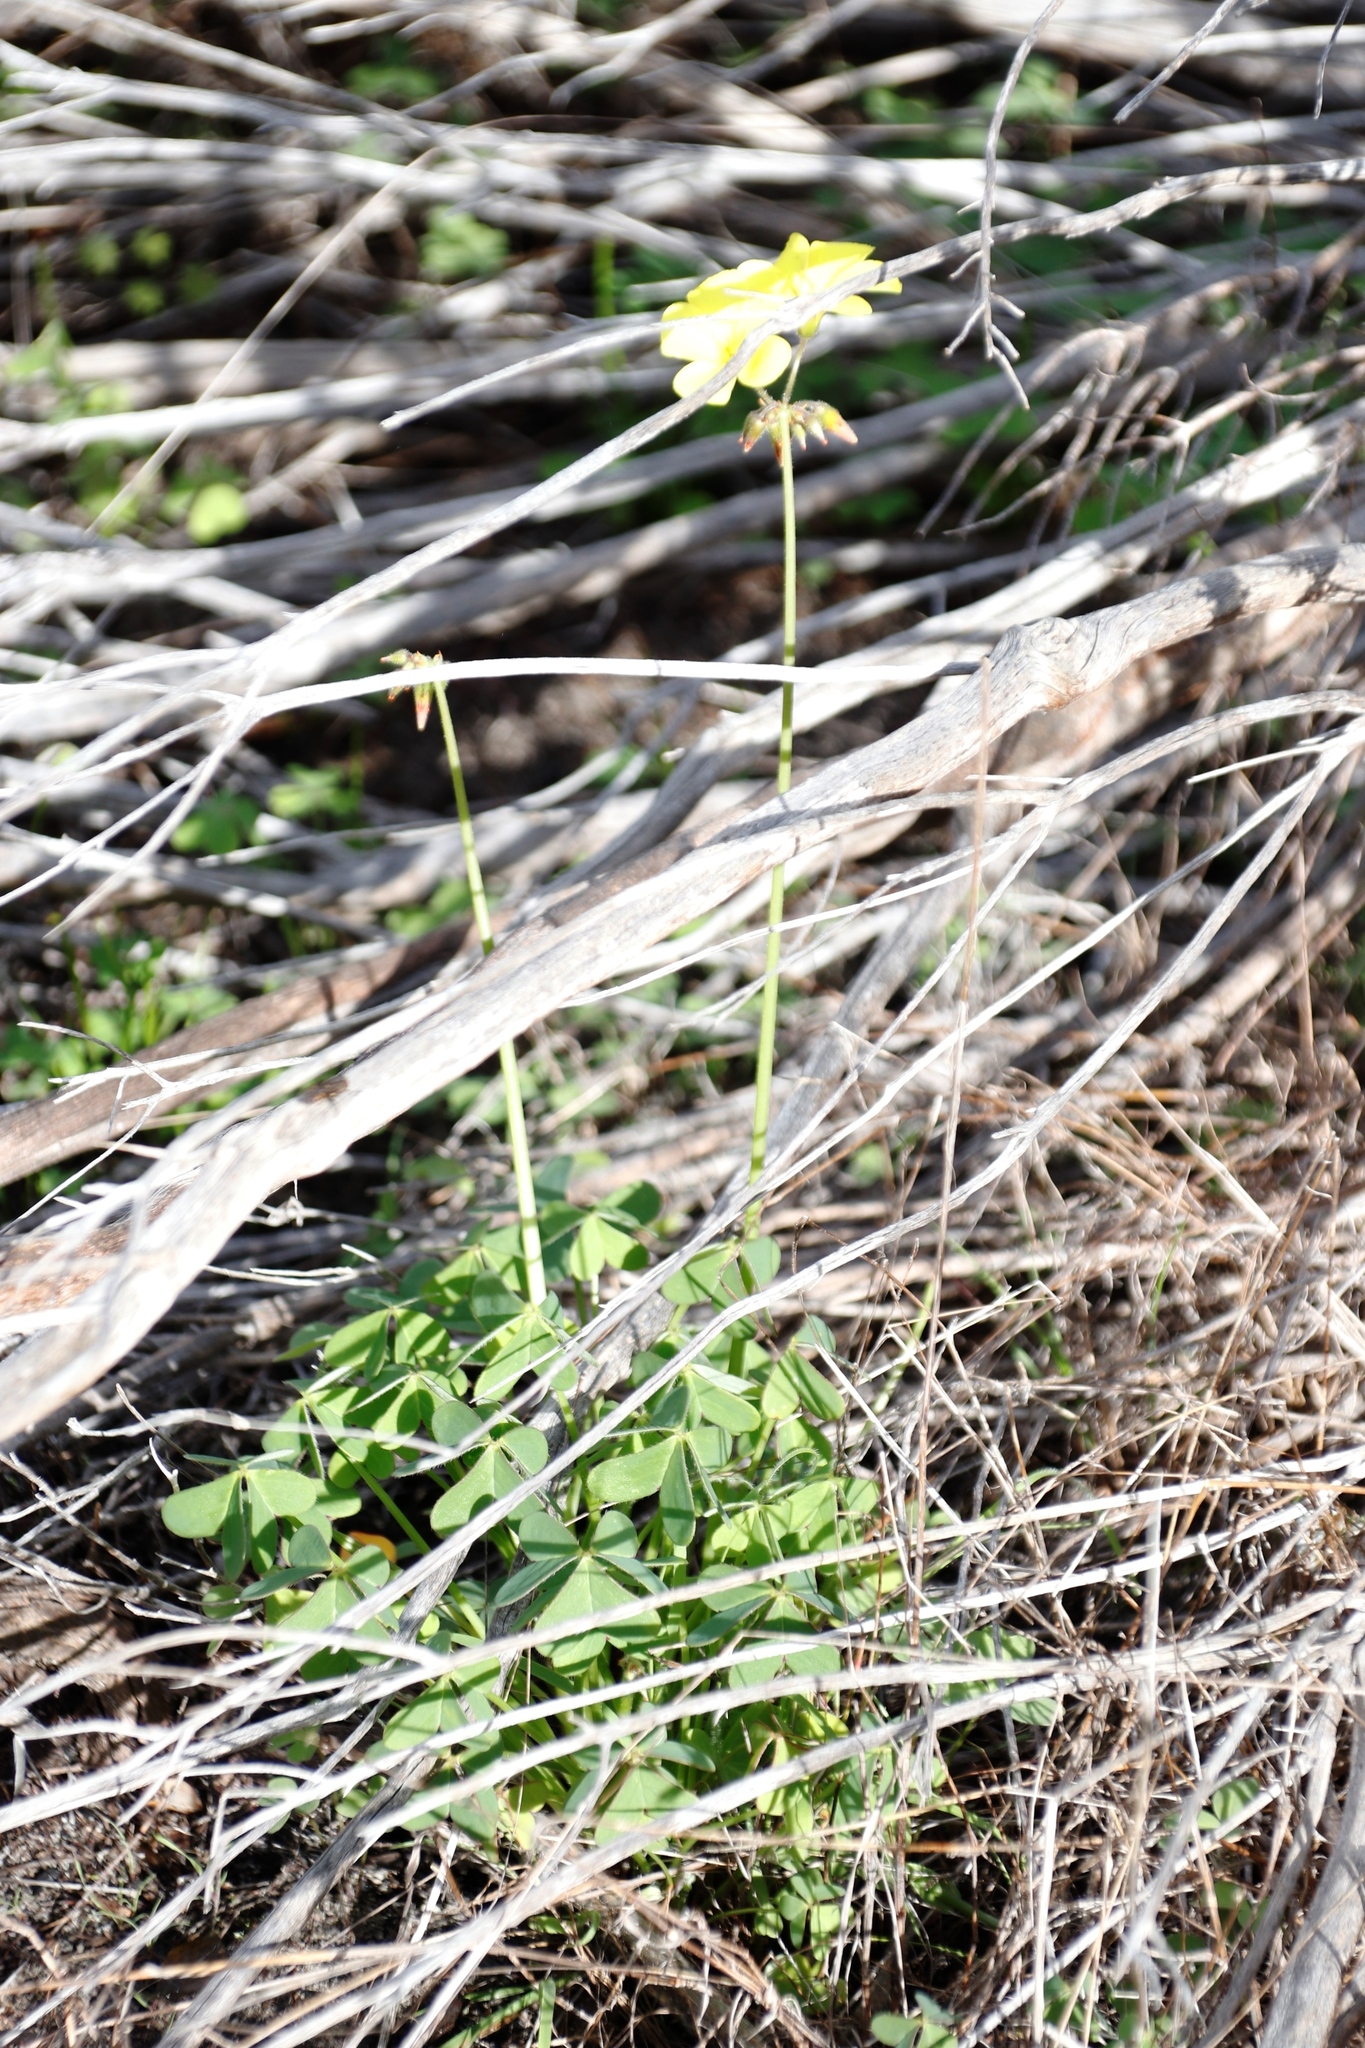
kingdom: Plantae
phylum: Tracheophyta
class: Magnoliopsida
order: Oxalidales
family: Oxalidaceae
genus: Oxalis
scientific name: Oxalis pes-caprae
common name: Bermuda-buttercup
